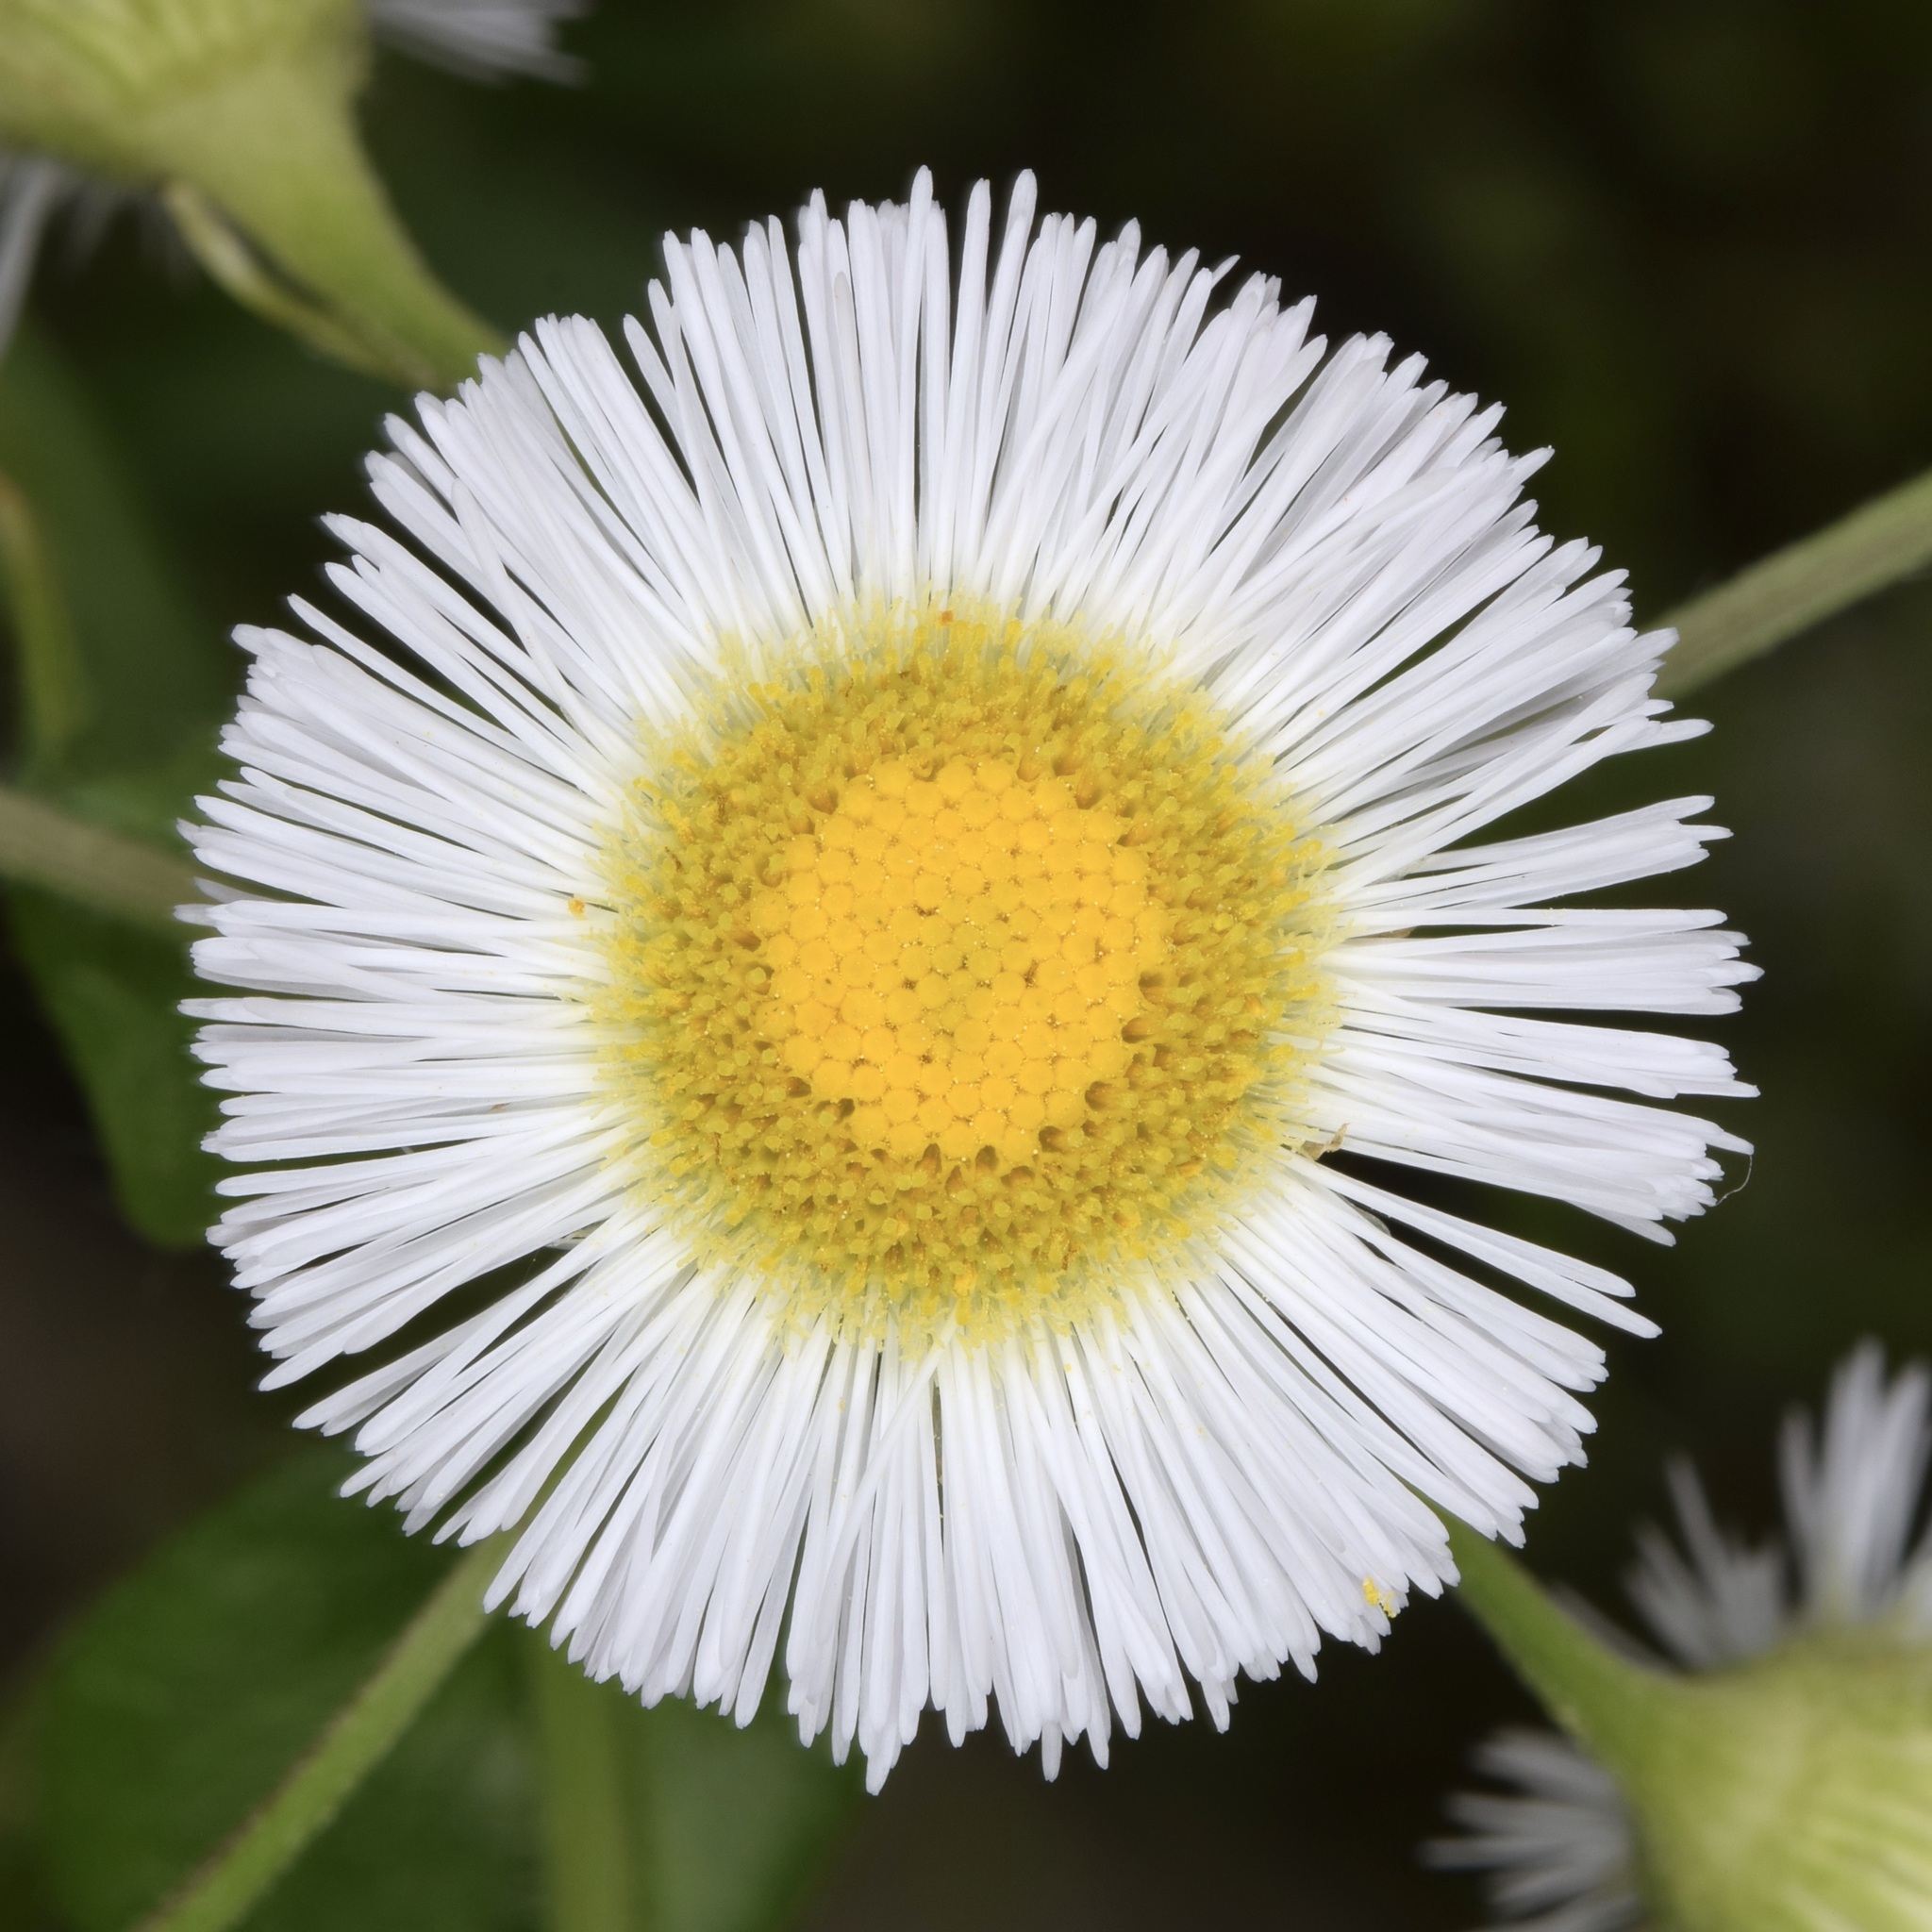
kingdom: Plantae
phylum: Tracheophyta
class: Magnoliopsida
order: Asterales
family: Asteraceae
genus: Erigeron
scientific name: Erigeron philadelphicus
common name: Robin's-plantain
